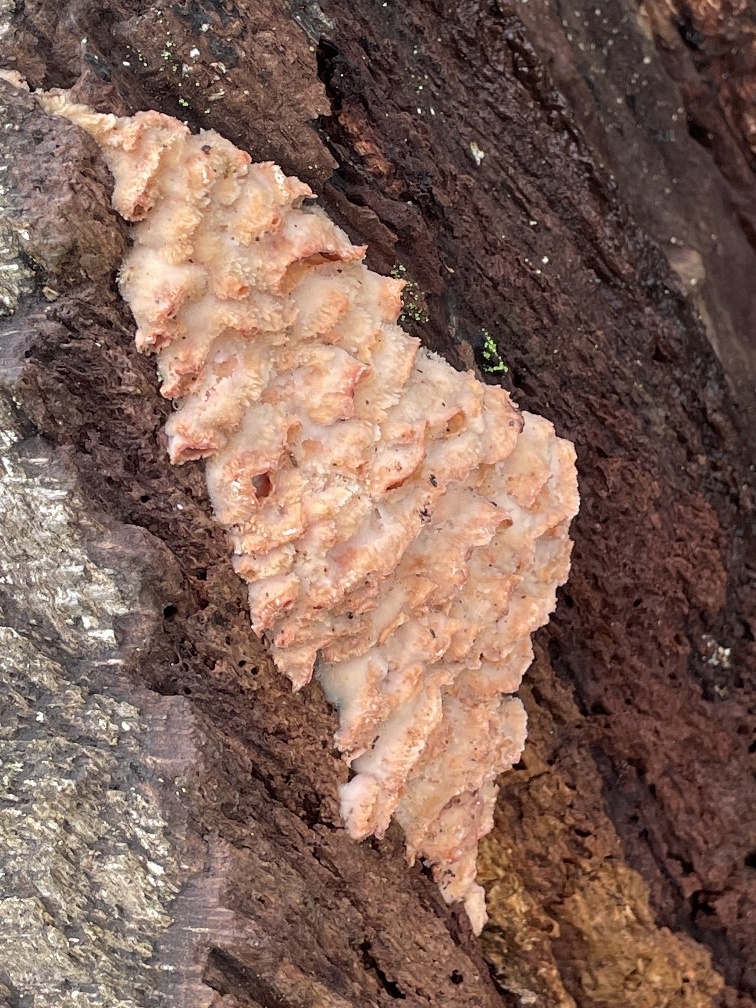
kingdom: Fungi
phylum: Basidiomycota
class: Agaricomycetes
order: Polyporales
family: Meruliaceae
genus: Phlebia
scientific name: Phlebia tremellosa
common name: Jelly rot
